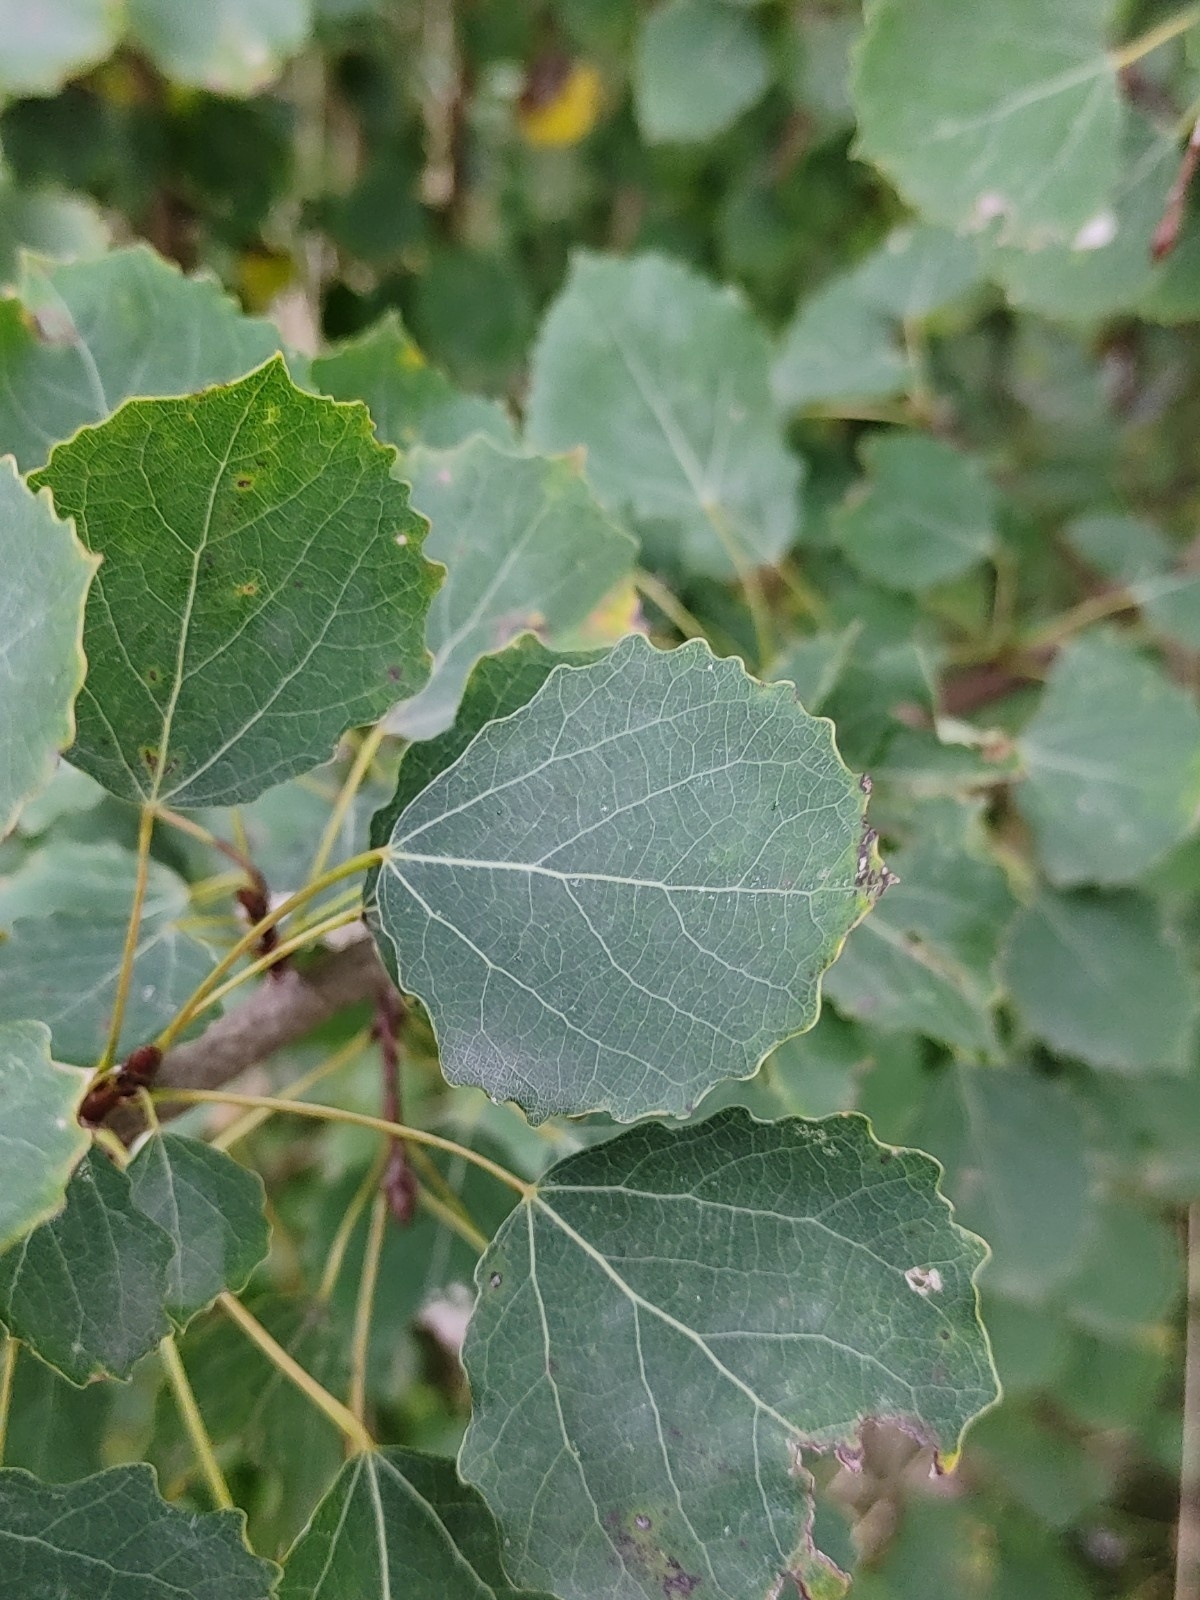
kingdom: Plantae
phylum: Tracheophyta
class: Magnoliopsida
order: Malpighiales
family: Salicaceae
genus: Populus
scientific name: Populus tremula
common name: European aspen
